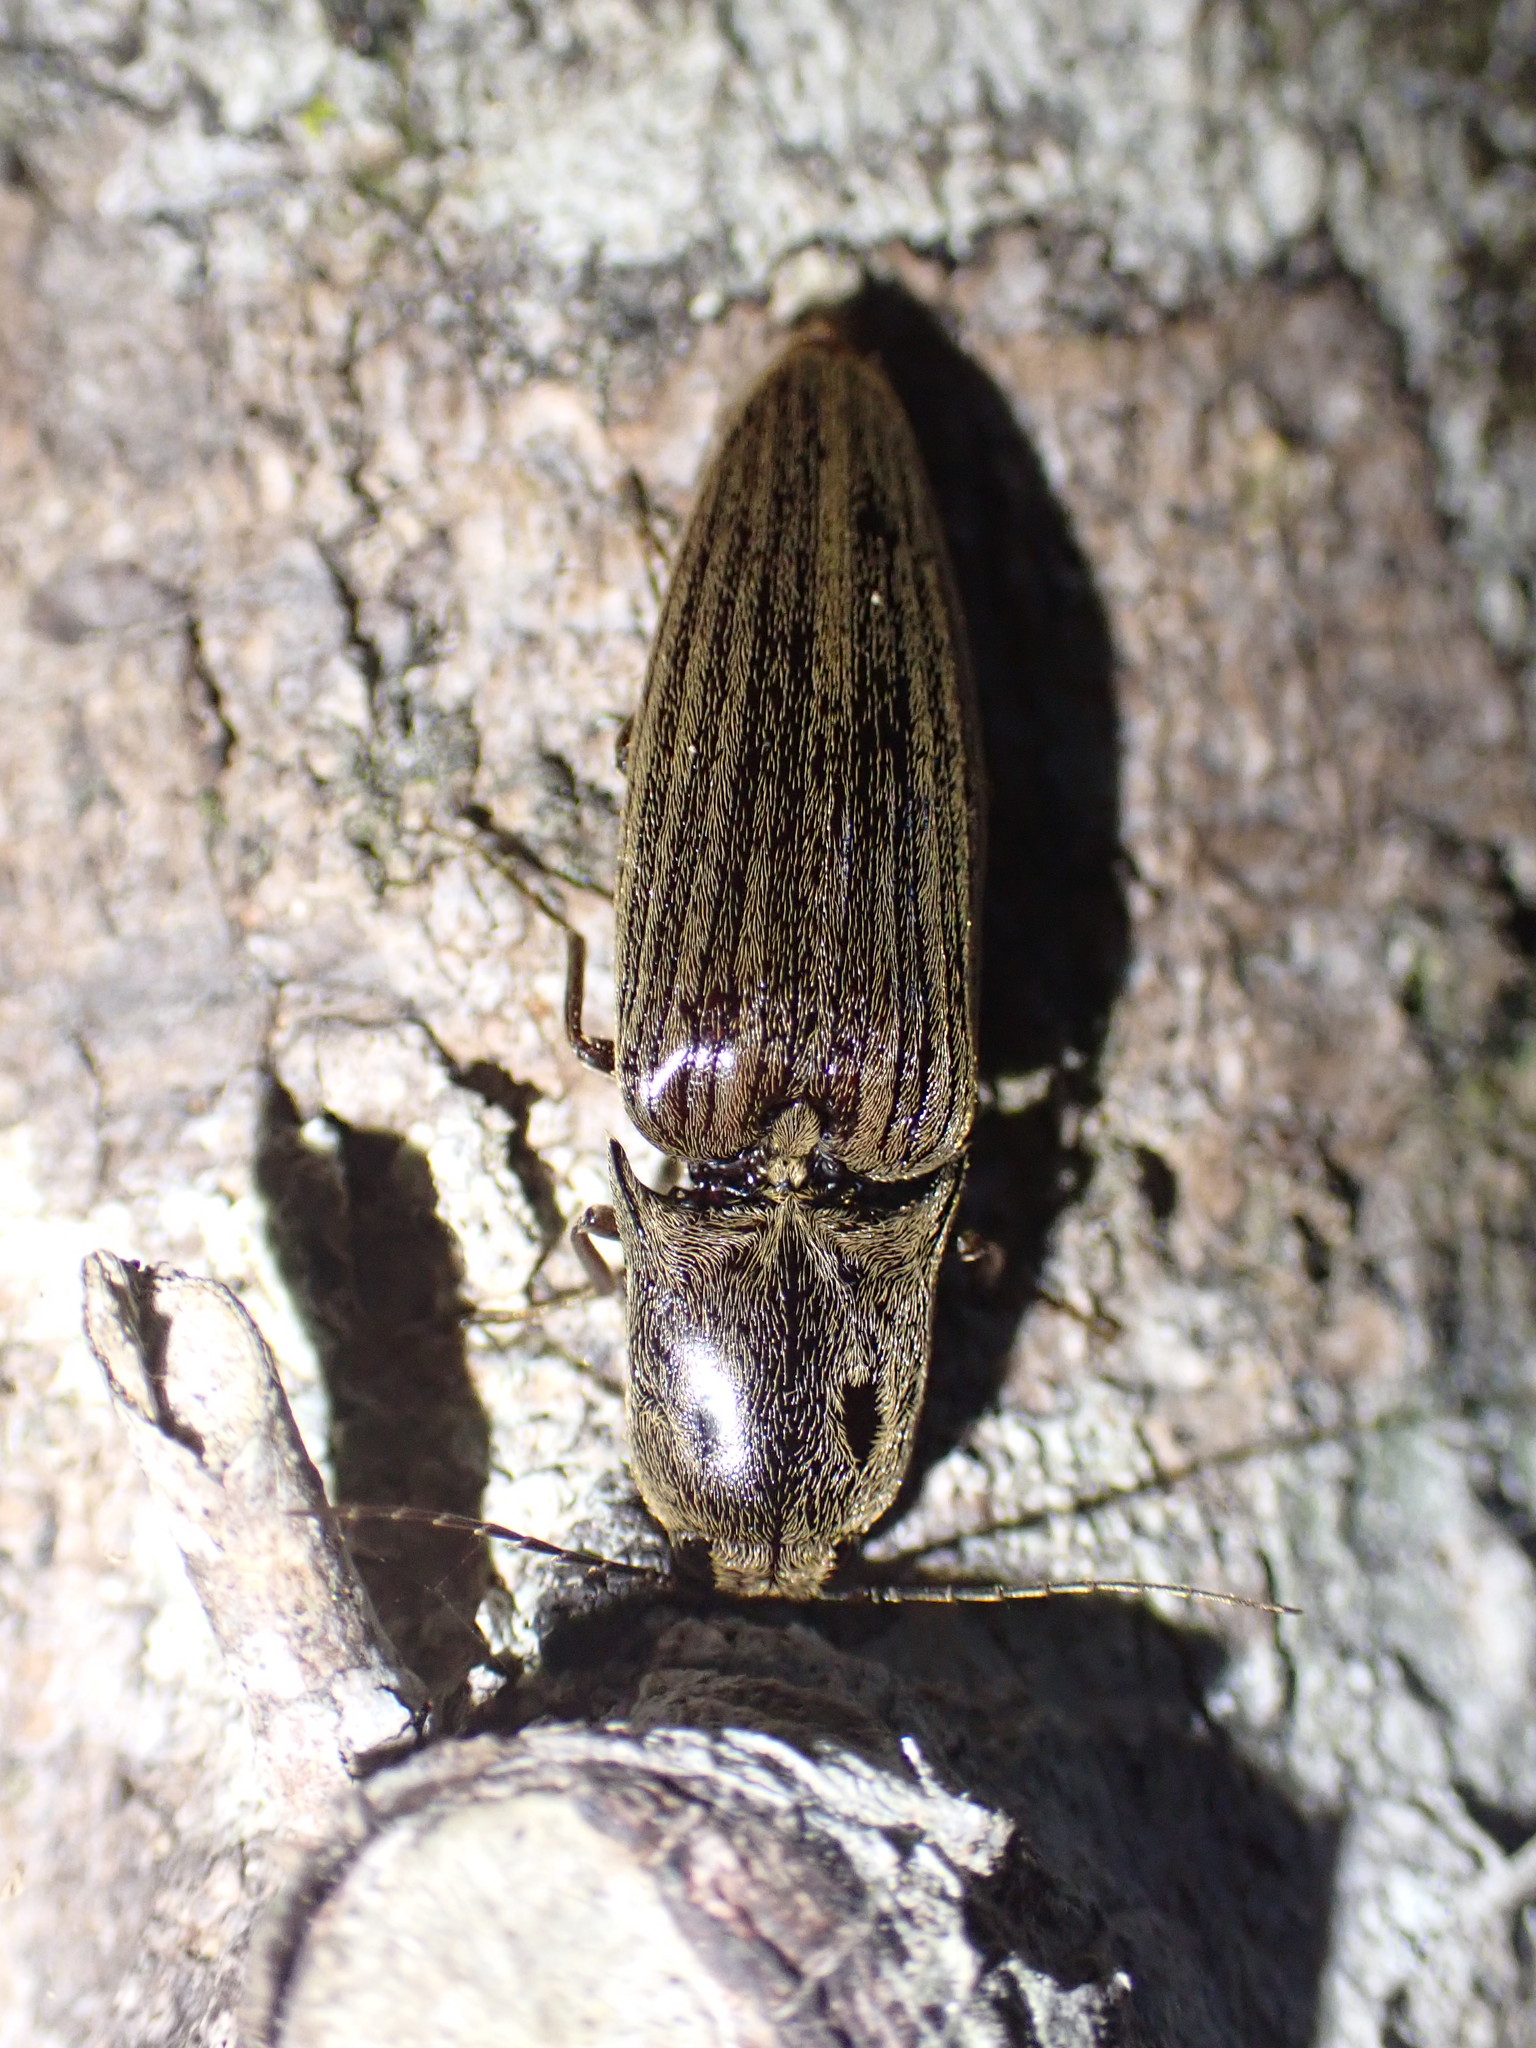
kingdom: Animalia
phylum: Arthropoda
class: Insecta
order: Coleoptera
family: Elateridae
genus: Thoramus
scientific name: Thoramus
